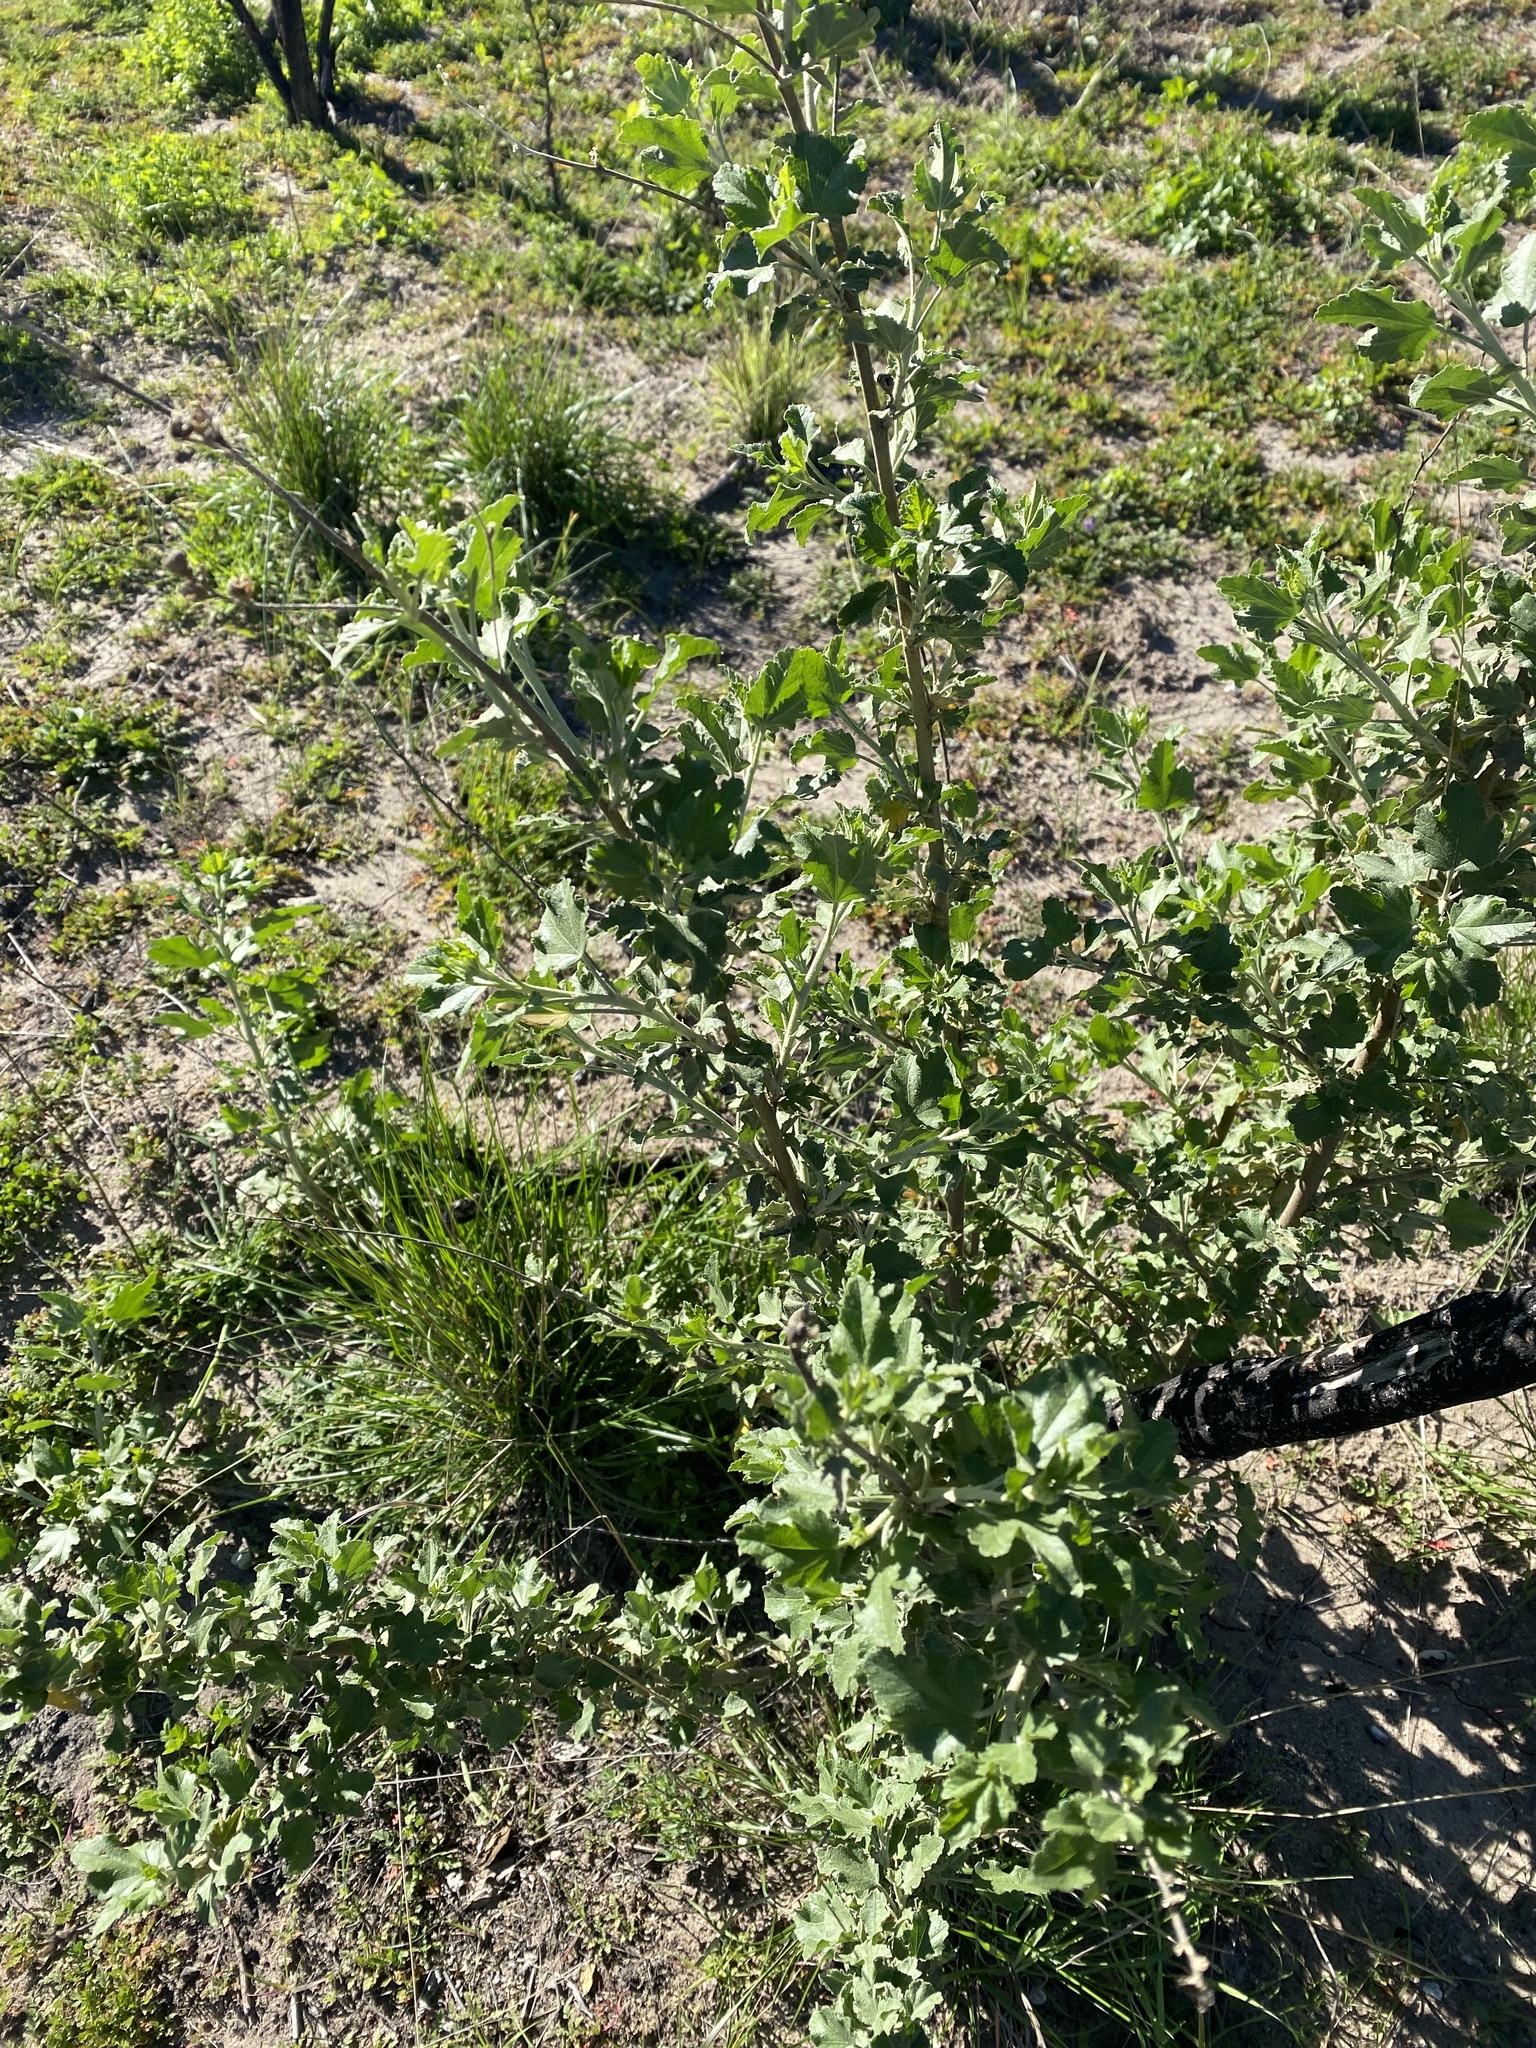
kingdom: Plantae
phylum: Tracheophyta
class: Magnoliopsida
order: Malvales
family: Malvaceae
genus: Malacothamnus
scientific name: Malacothamnus fasciculatus
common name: Sant cruz island bush-mallow
